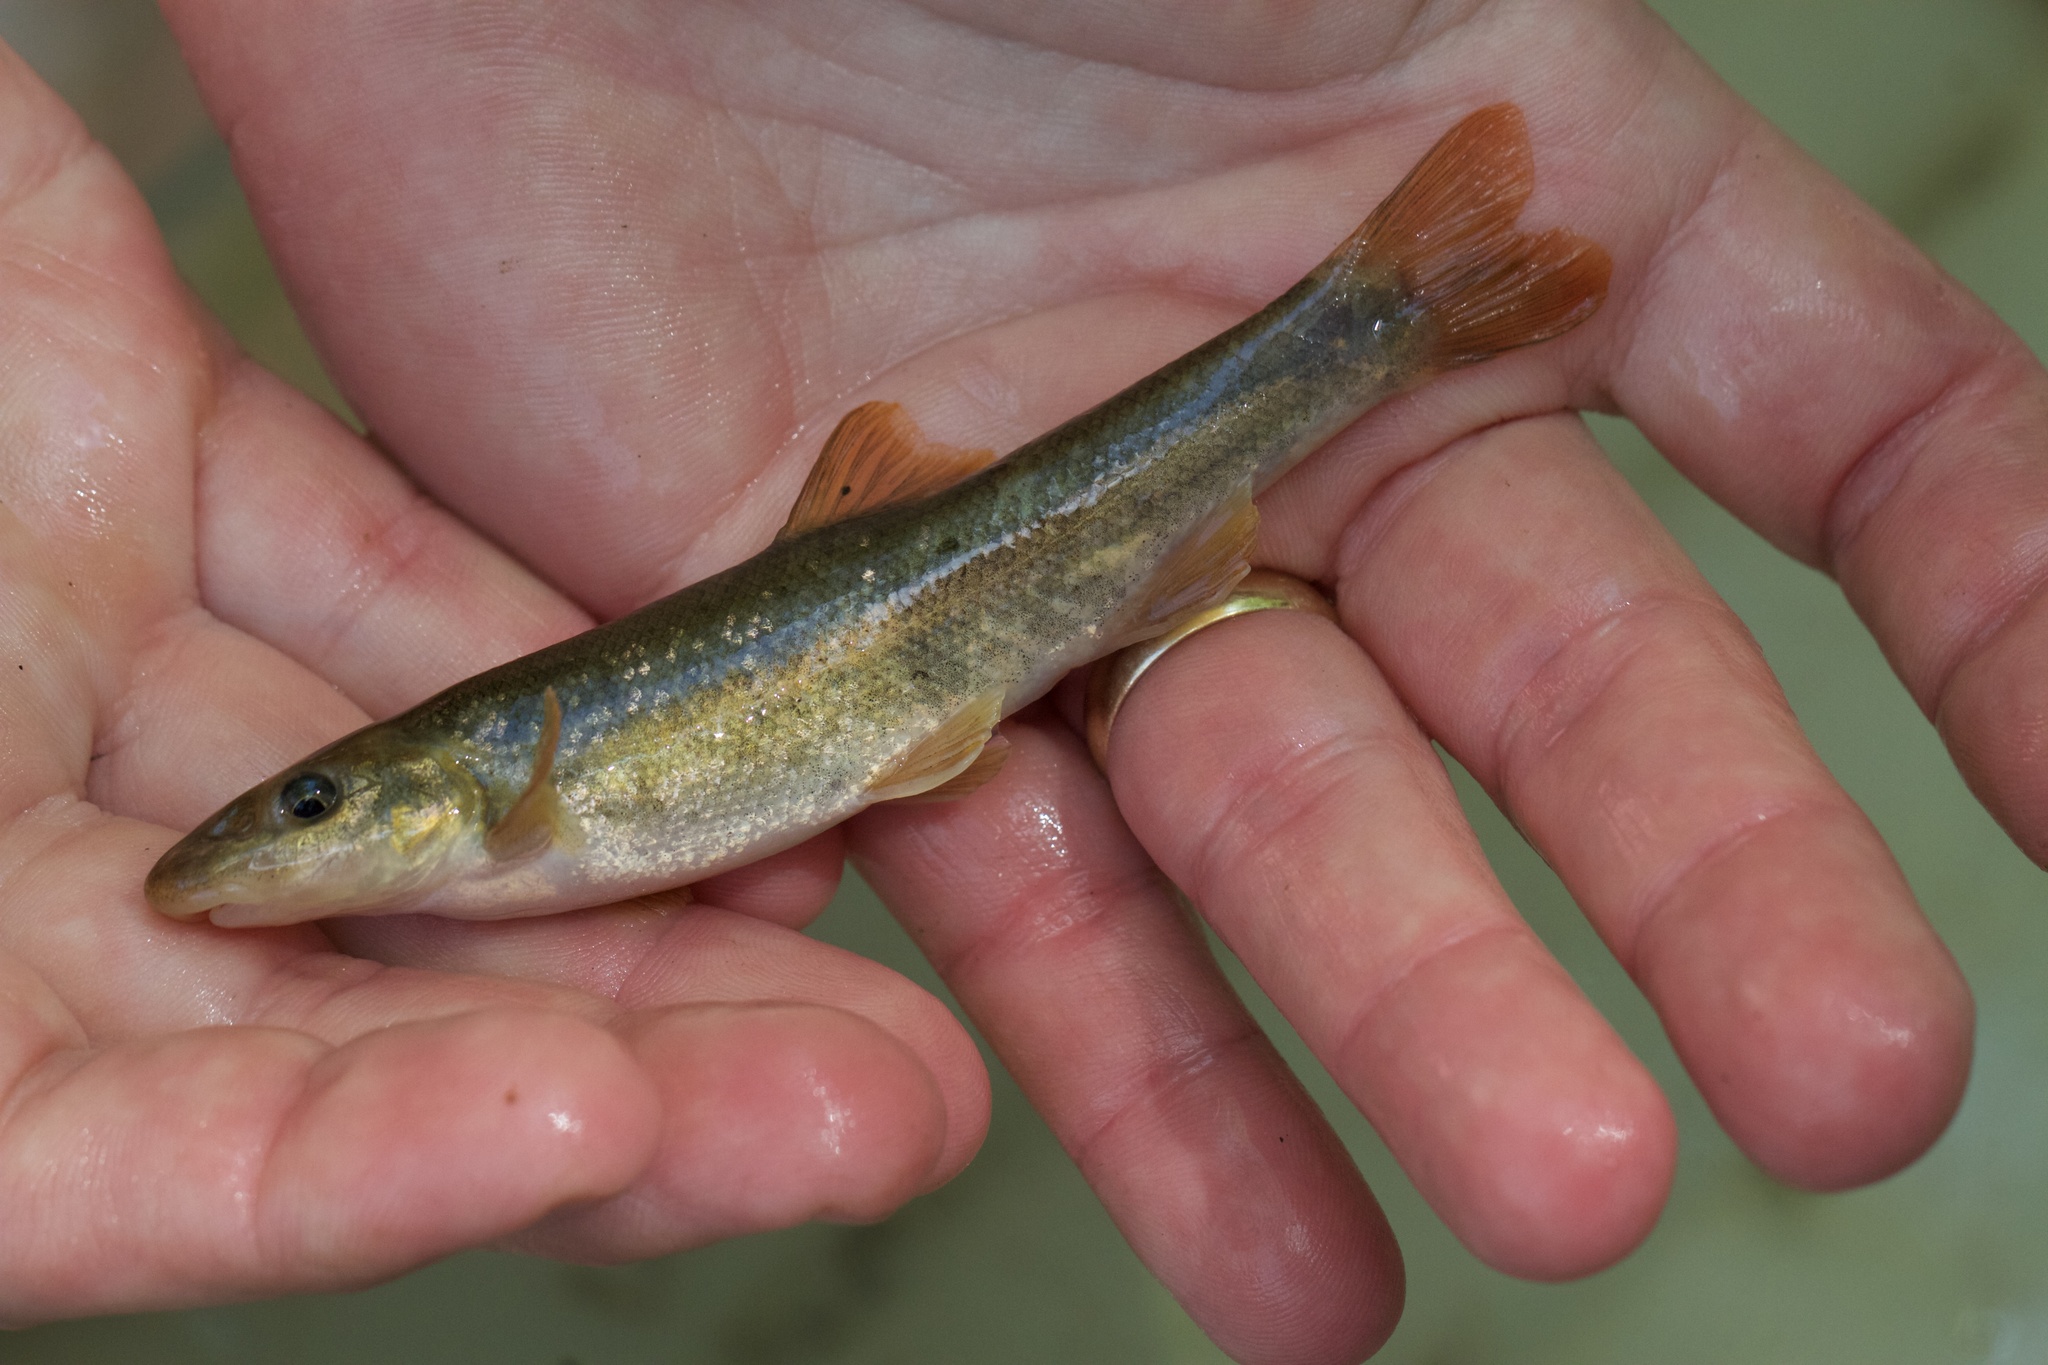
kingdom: Animalia
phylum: Chordata
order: Cypriniformes
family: Cyprinidae
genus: Rhinichthys
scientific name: Rhinichthys cataractae
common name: Longnose dace
